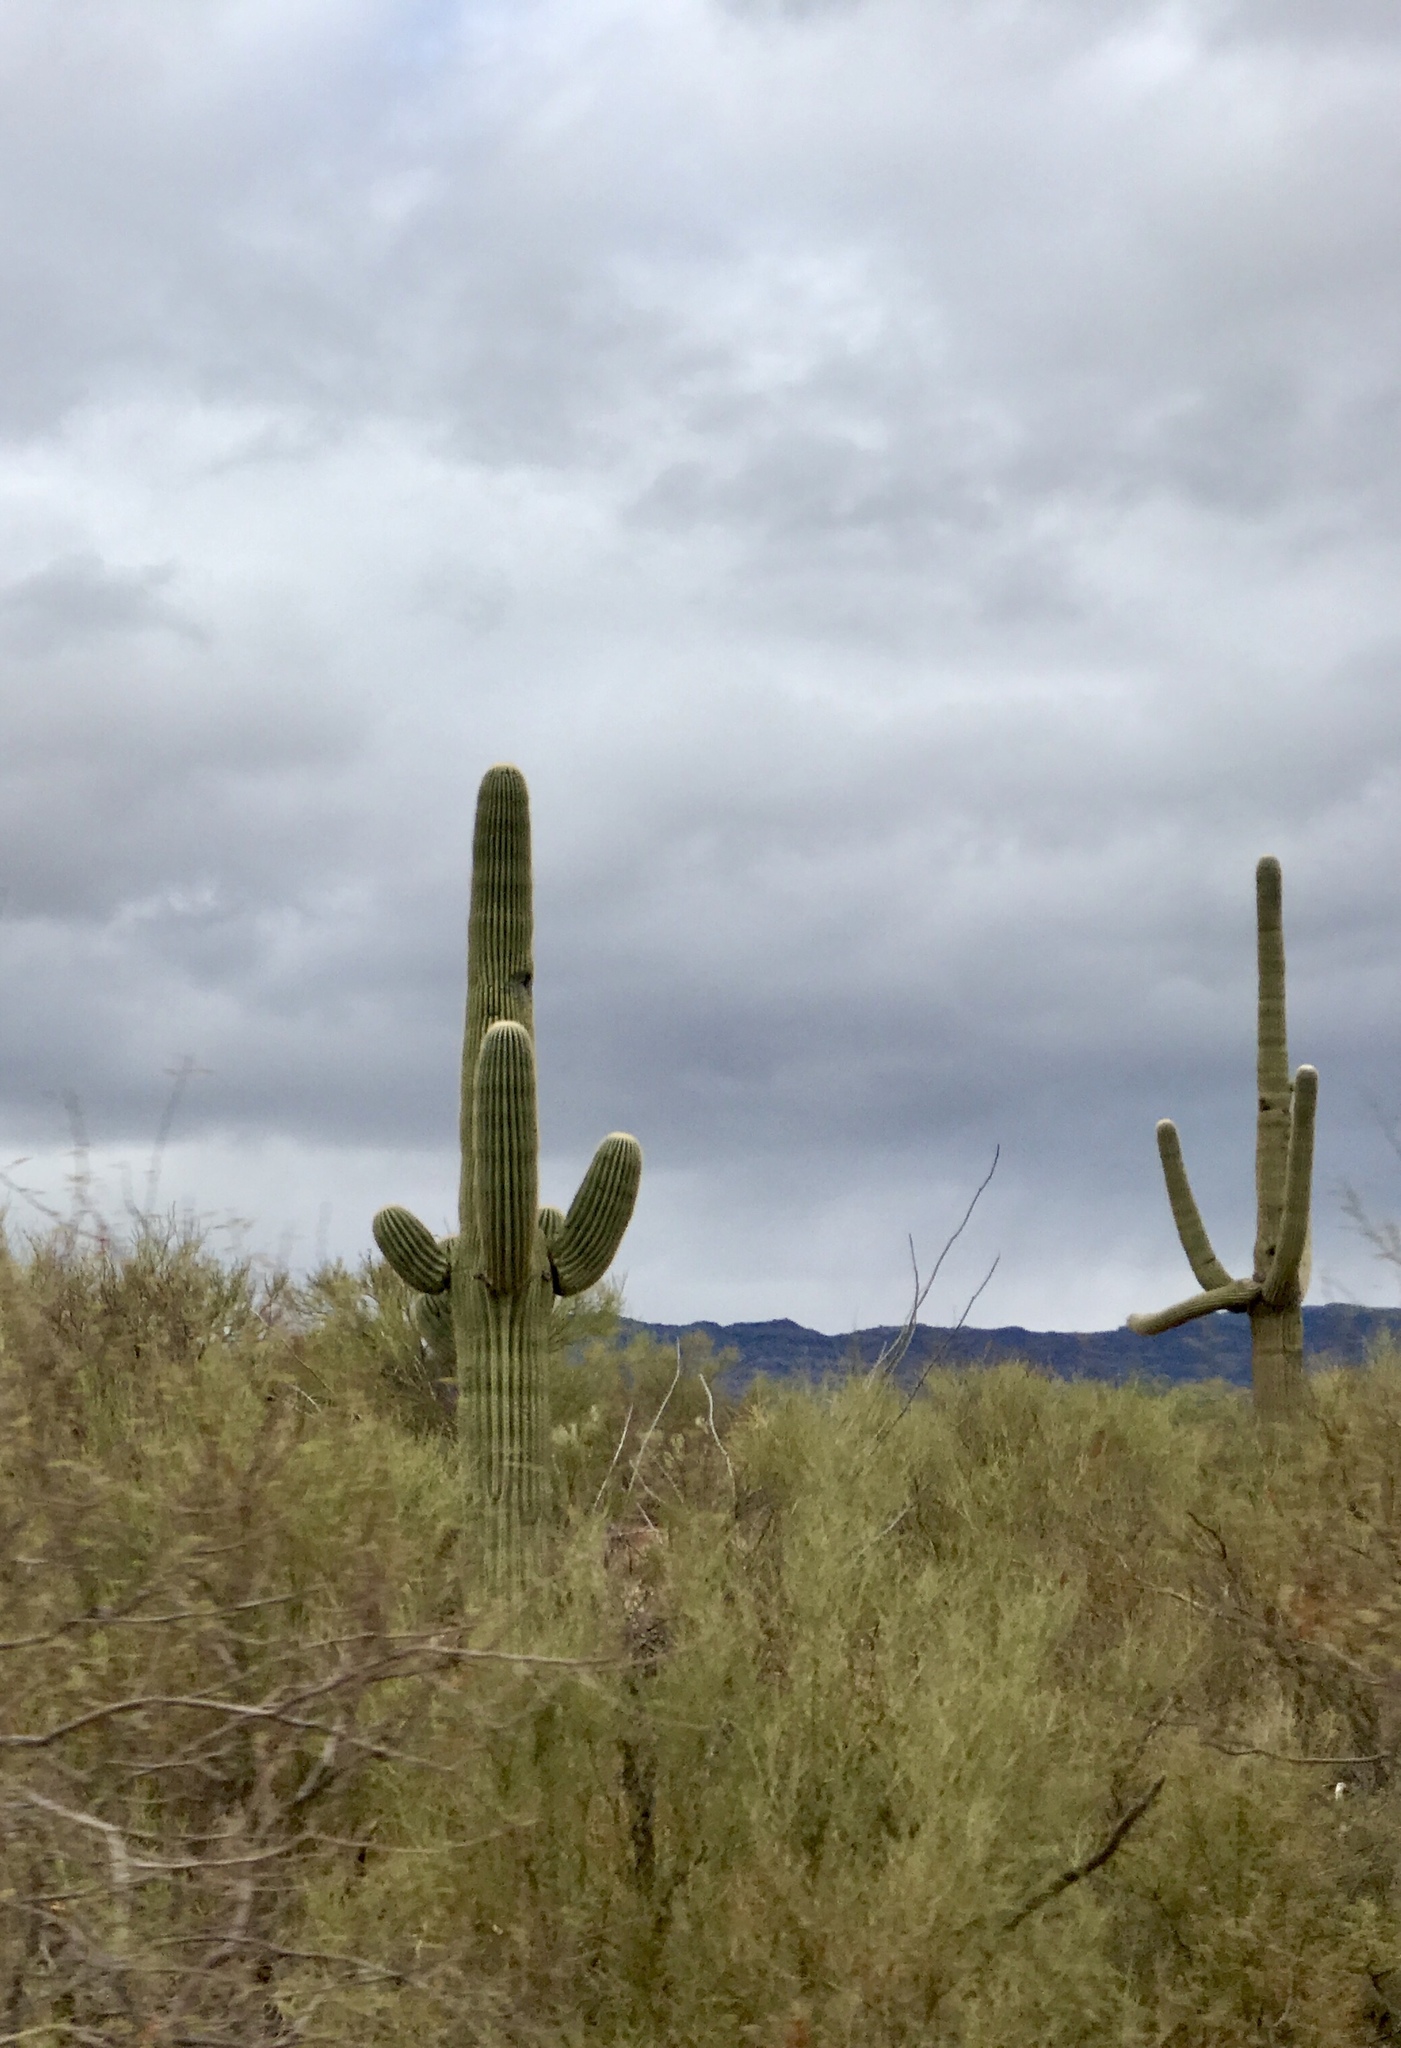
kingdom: Plantae
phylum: Tracheophyta
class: Magnoliopsida
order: Caryophyllales
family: Cactaceae
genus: Carnegiea
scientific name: Carnegiea gigantea
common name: Saguaro
